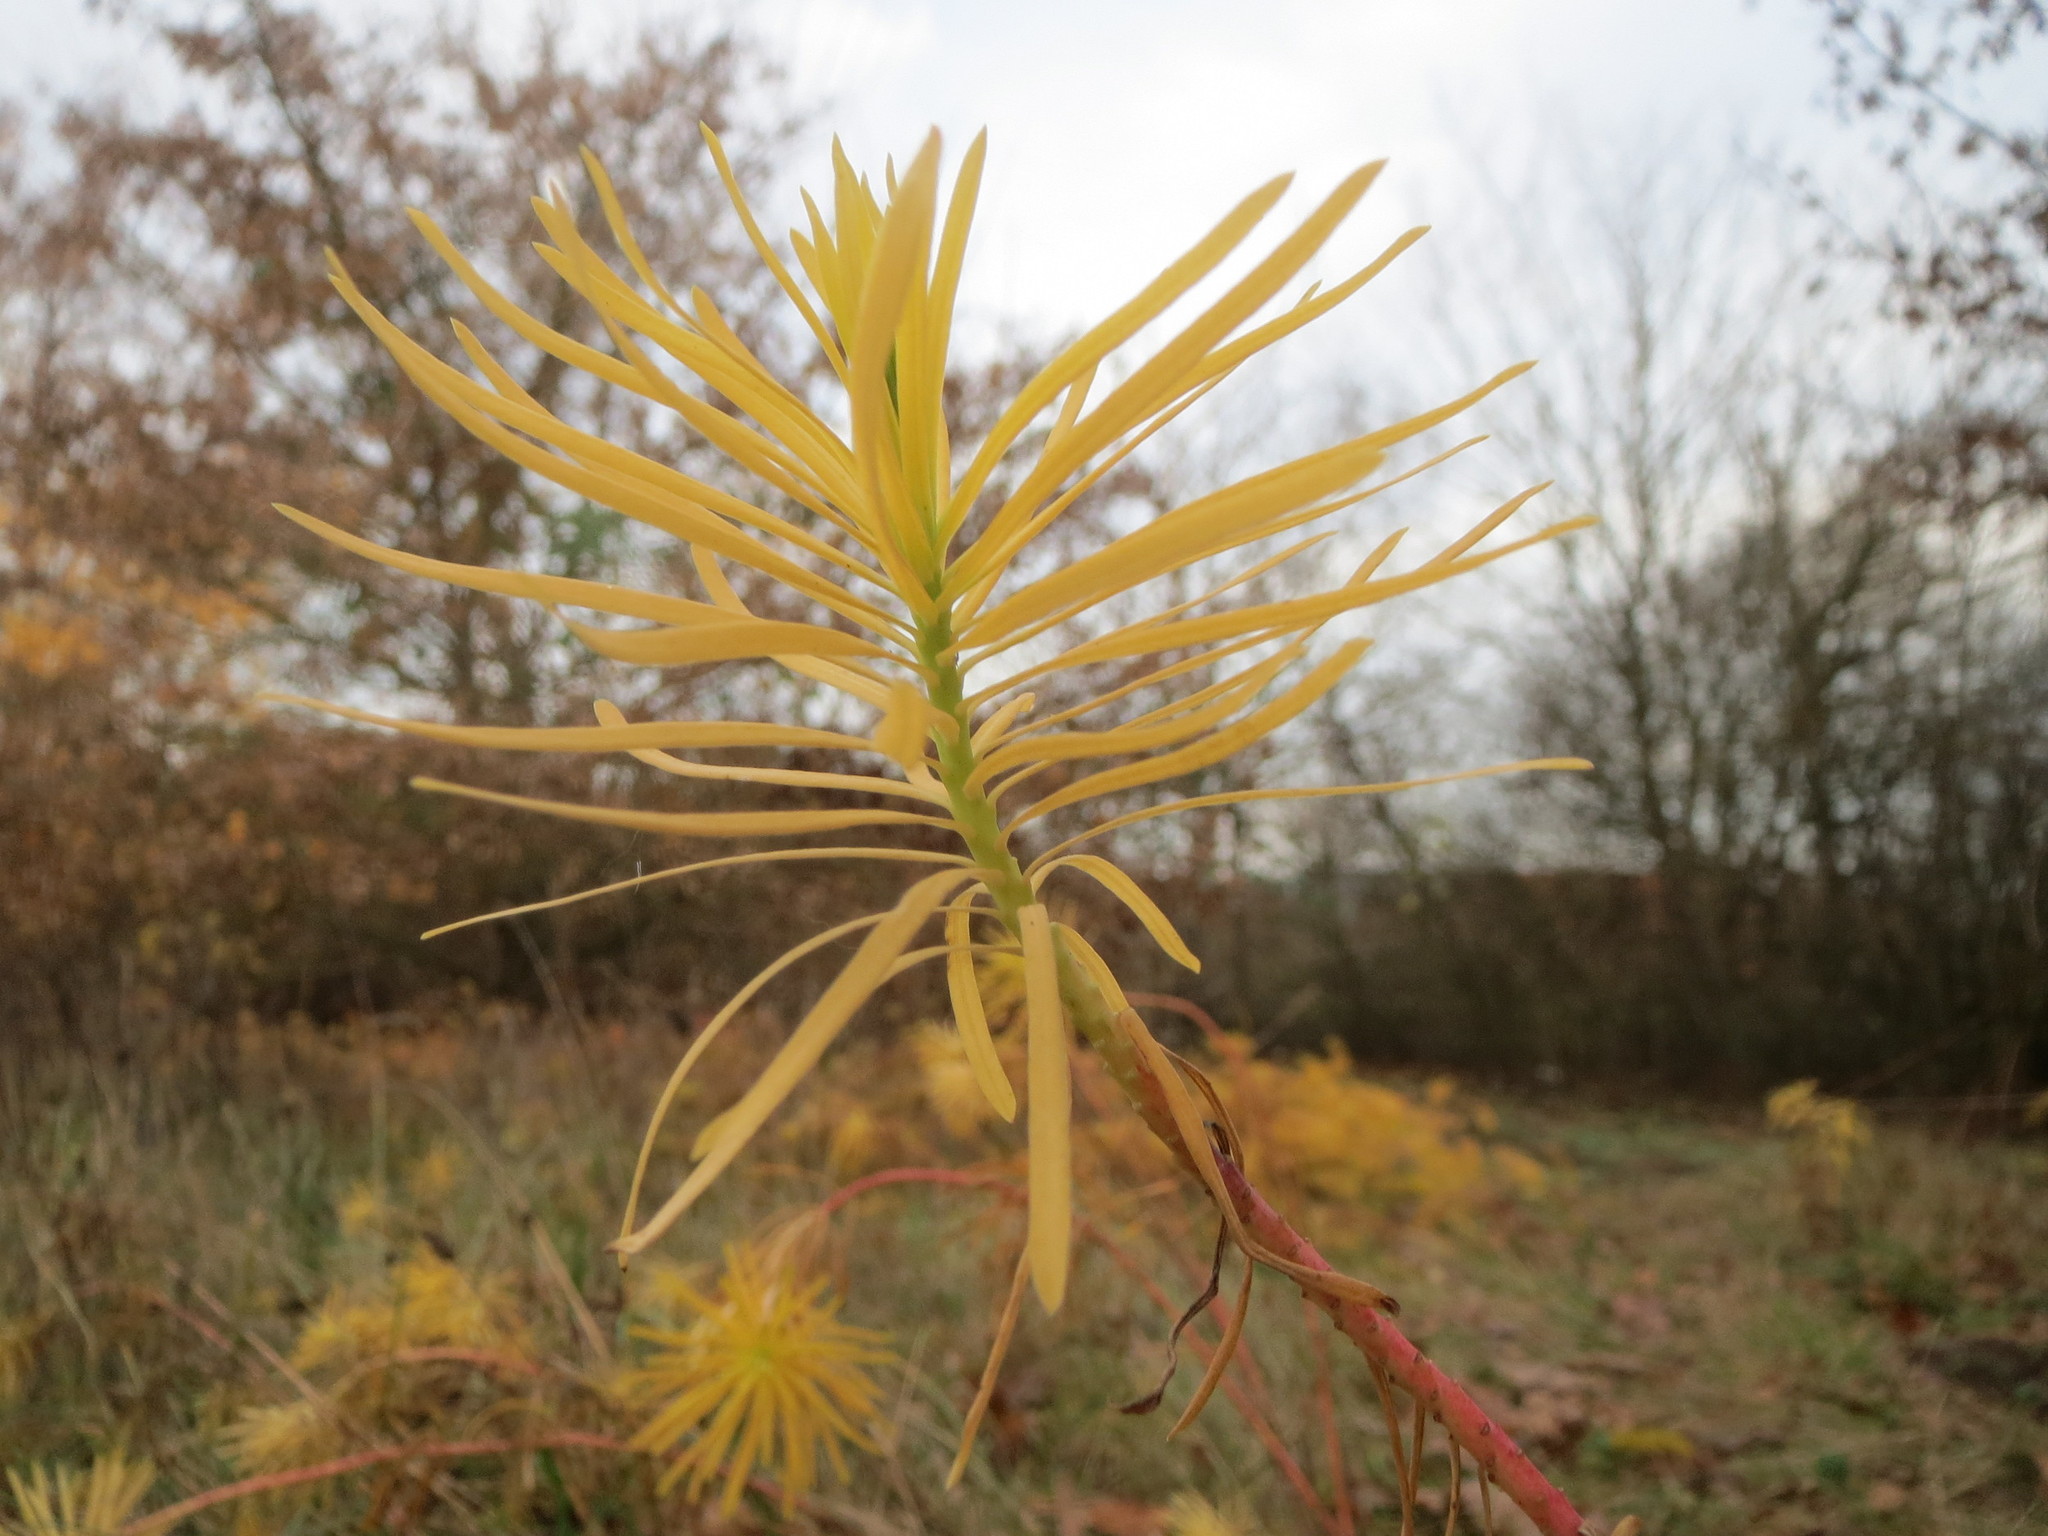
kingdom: Plantae
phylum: Tracheophyta
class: Magnoliopsida
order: Malpighiales
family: Euphorbiaceae
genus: Euphorbia
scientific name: Euphorbia cyparissias
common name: Cypress spurge
